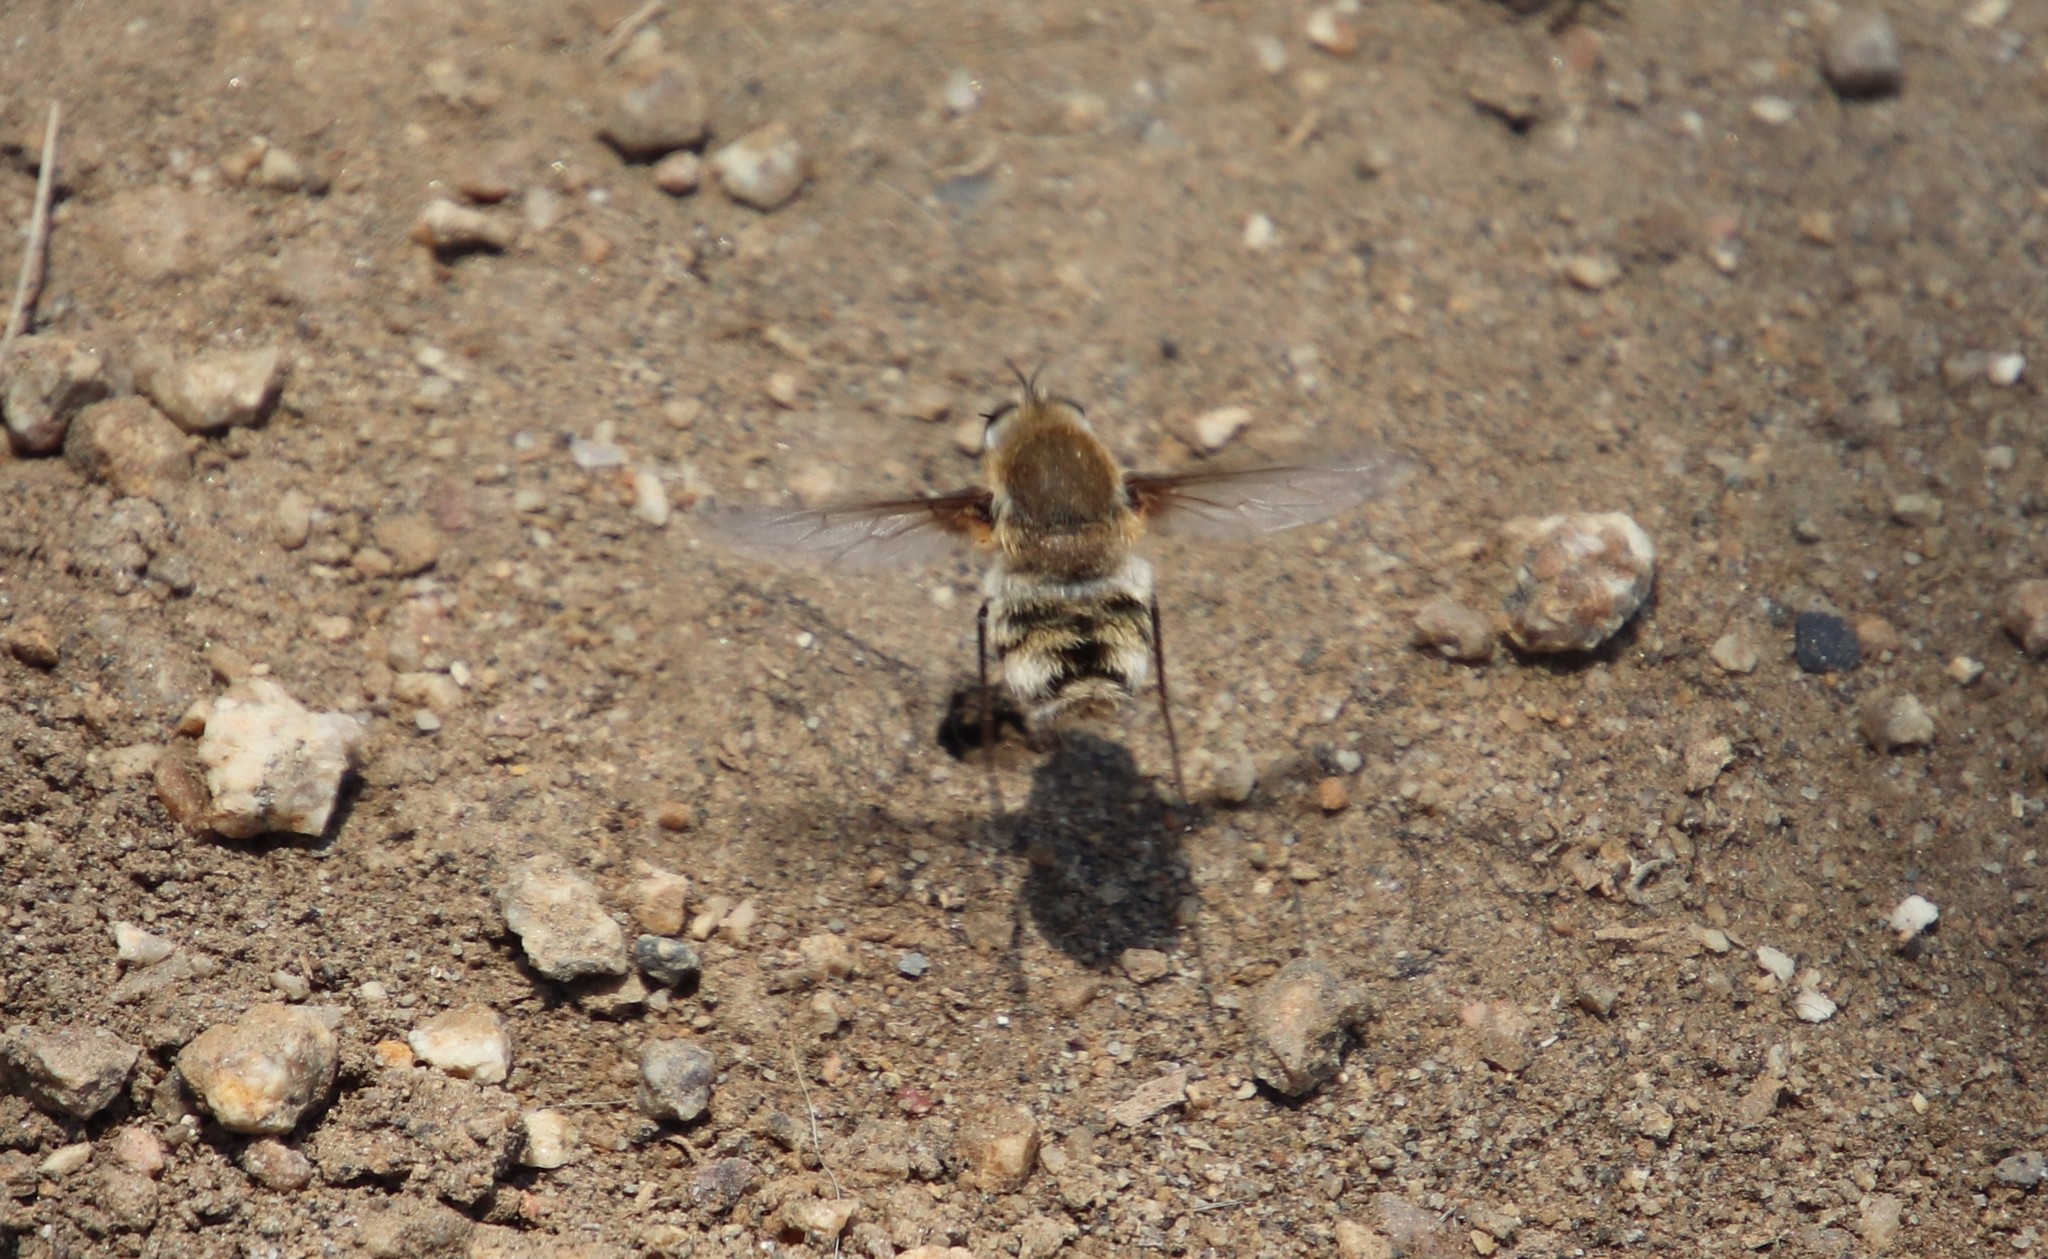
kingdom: Animalia
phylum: Arthropoda
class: Insecta
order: Diptera
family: Bombyliidae
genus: Heterostylum
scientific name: Heterostylum robustum
